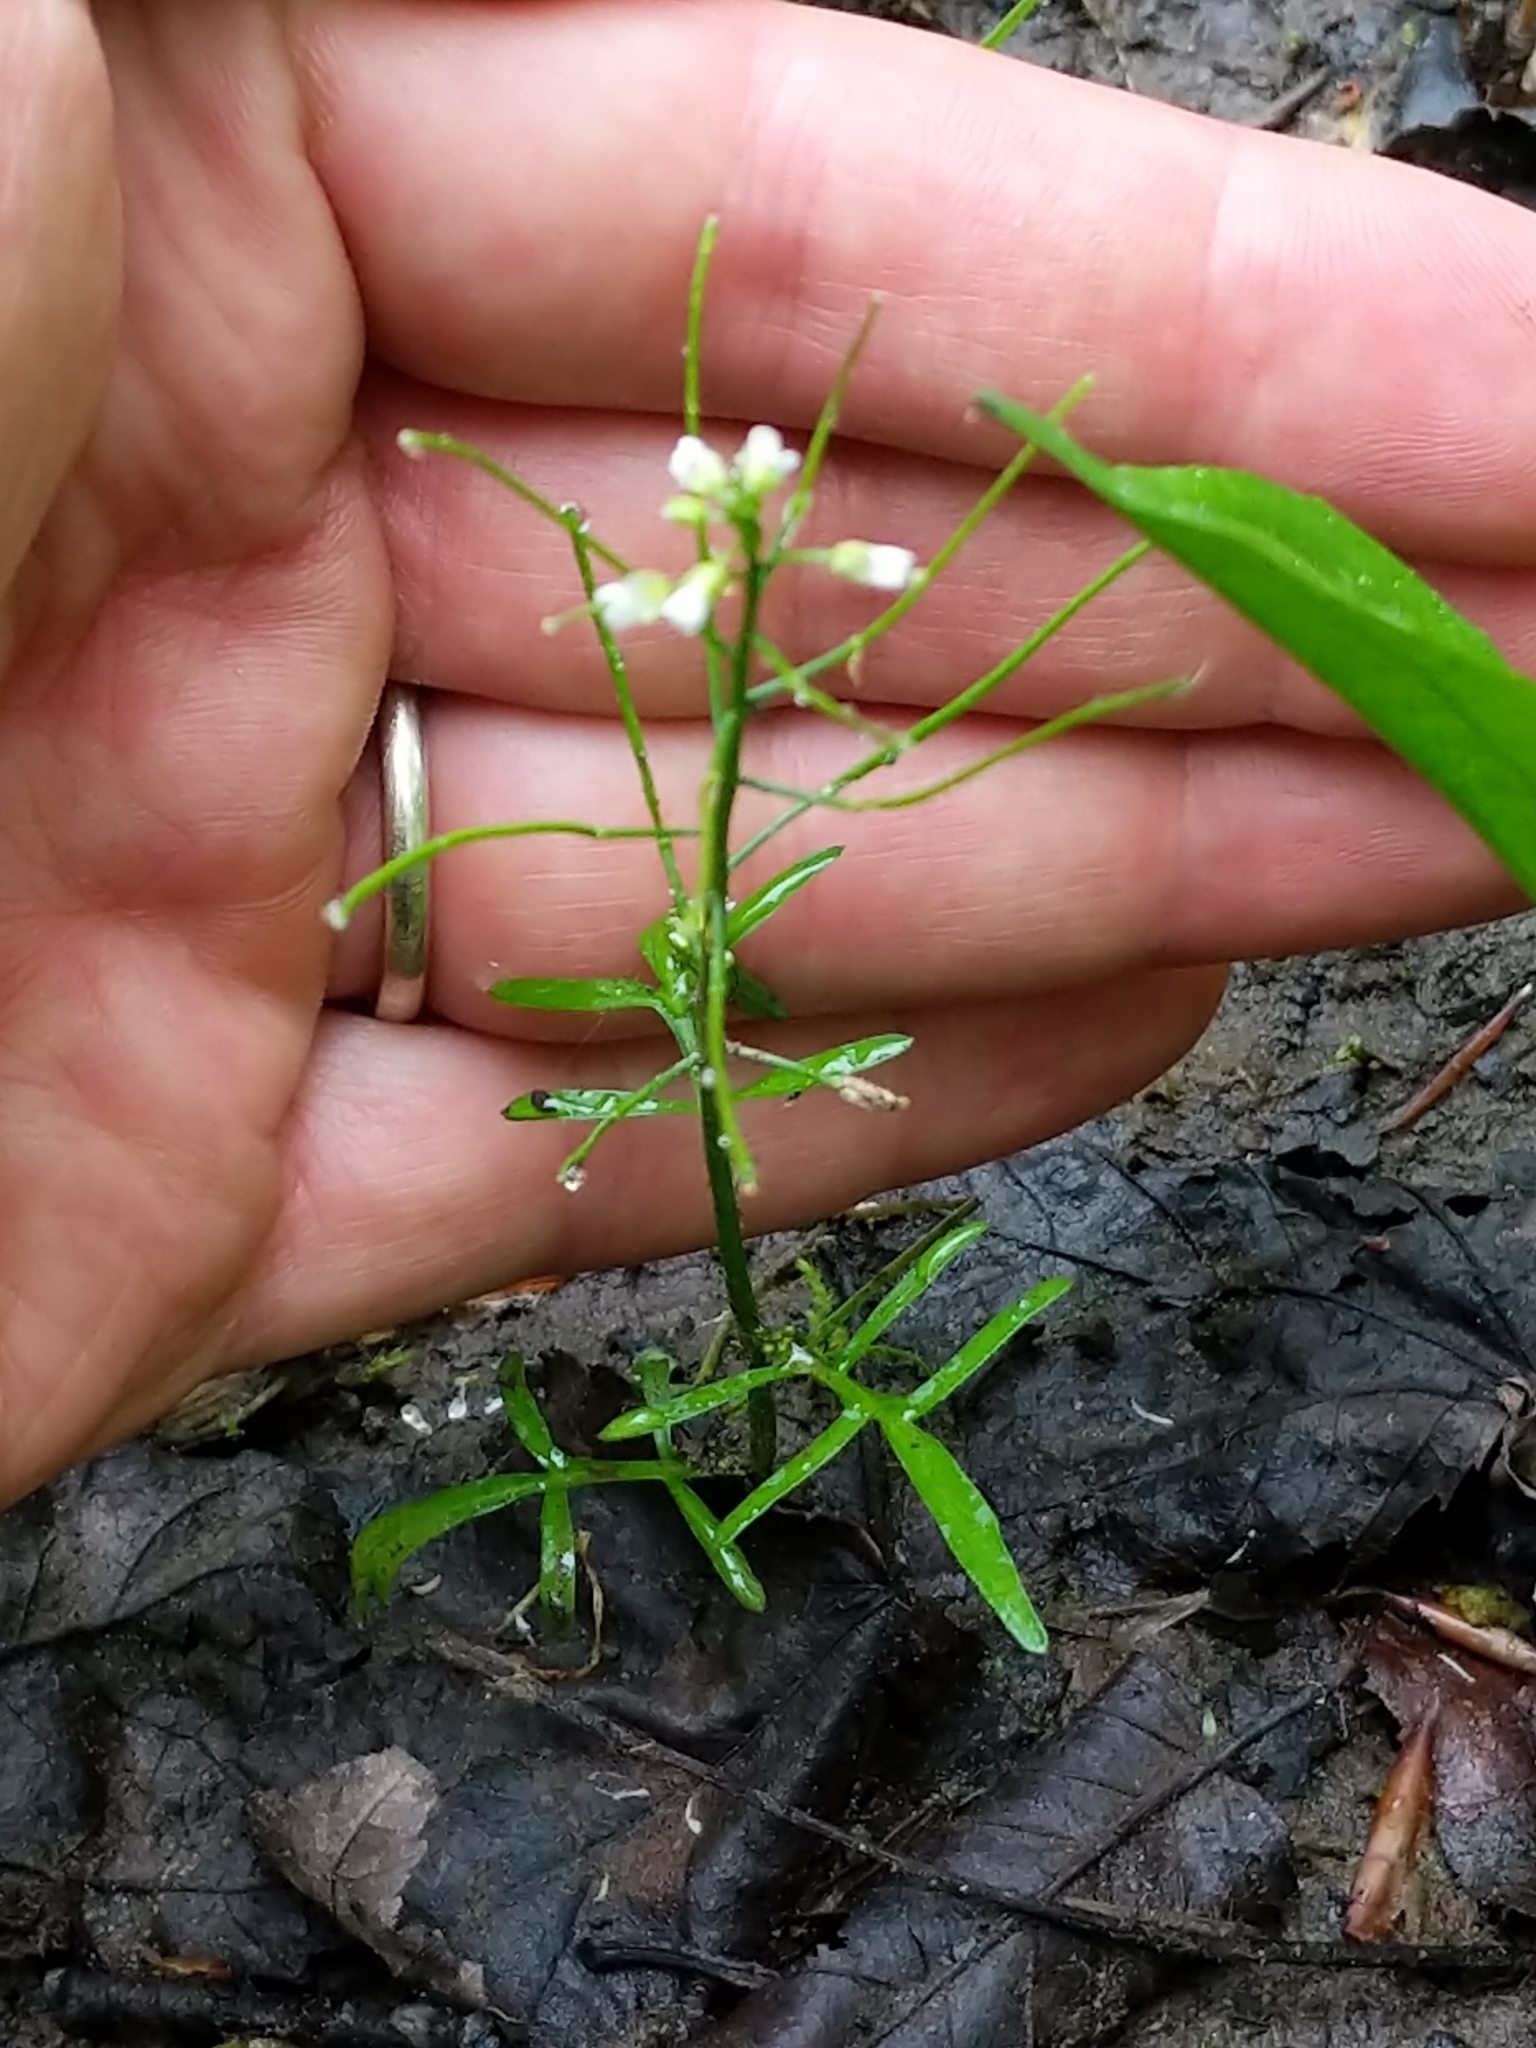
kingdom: Plantae
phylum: Tracheophyta
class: Magnoliopsida
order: Brassicales
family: Brassicaceae
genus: Cardamine
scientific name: Cardamine pensylvanica
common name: Pennsylvania bittercress
